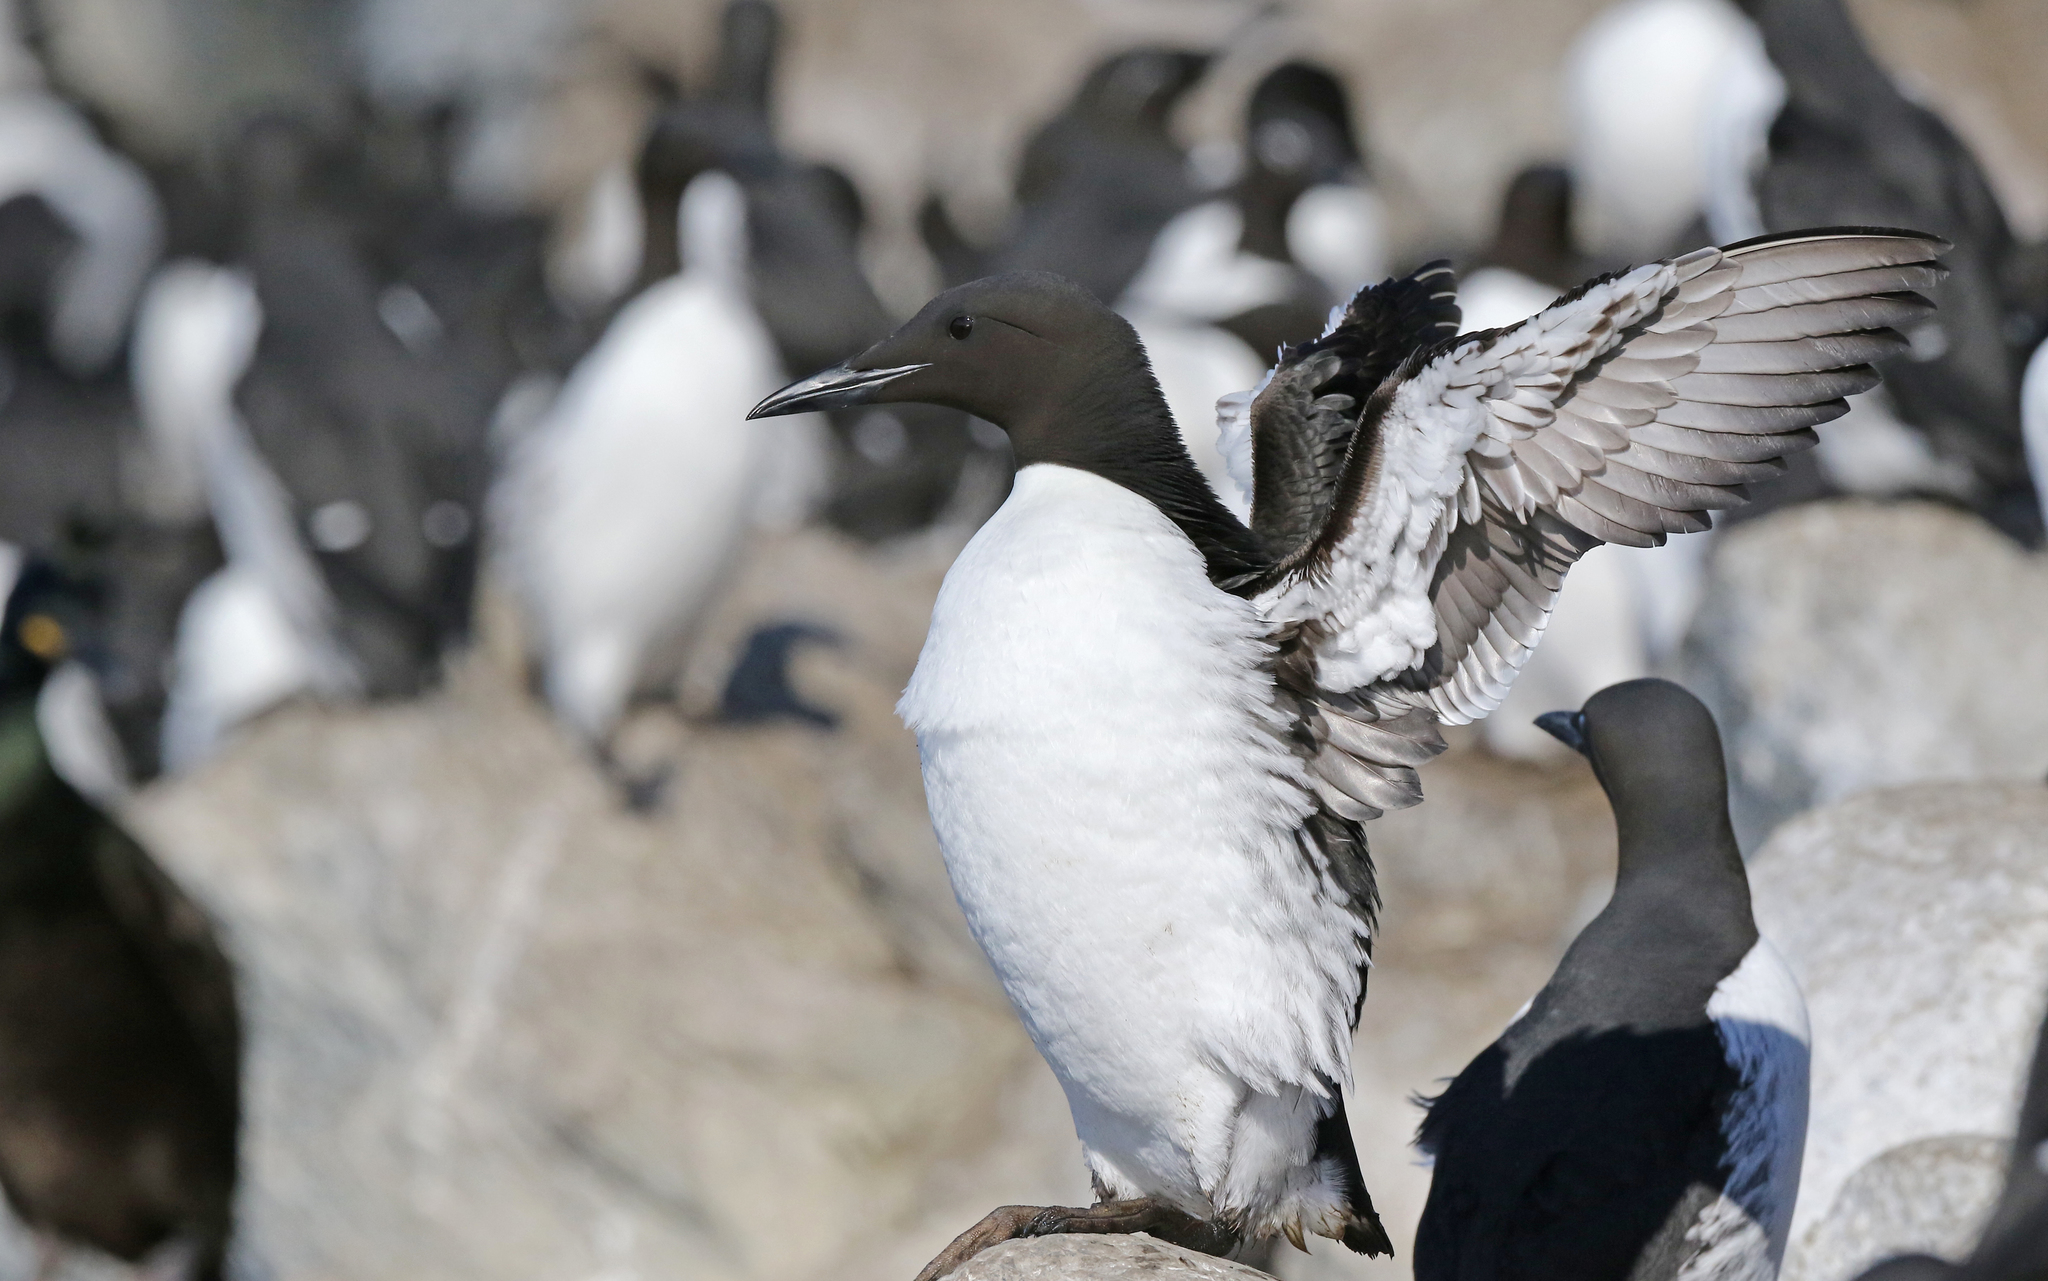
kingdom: Animalia
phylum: Chordata
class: Aves
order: Charadriiformes
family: Alcidae
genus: Uria
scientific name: Uria aalge
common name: Common murre
